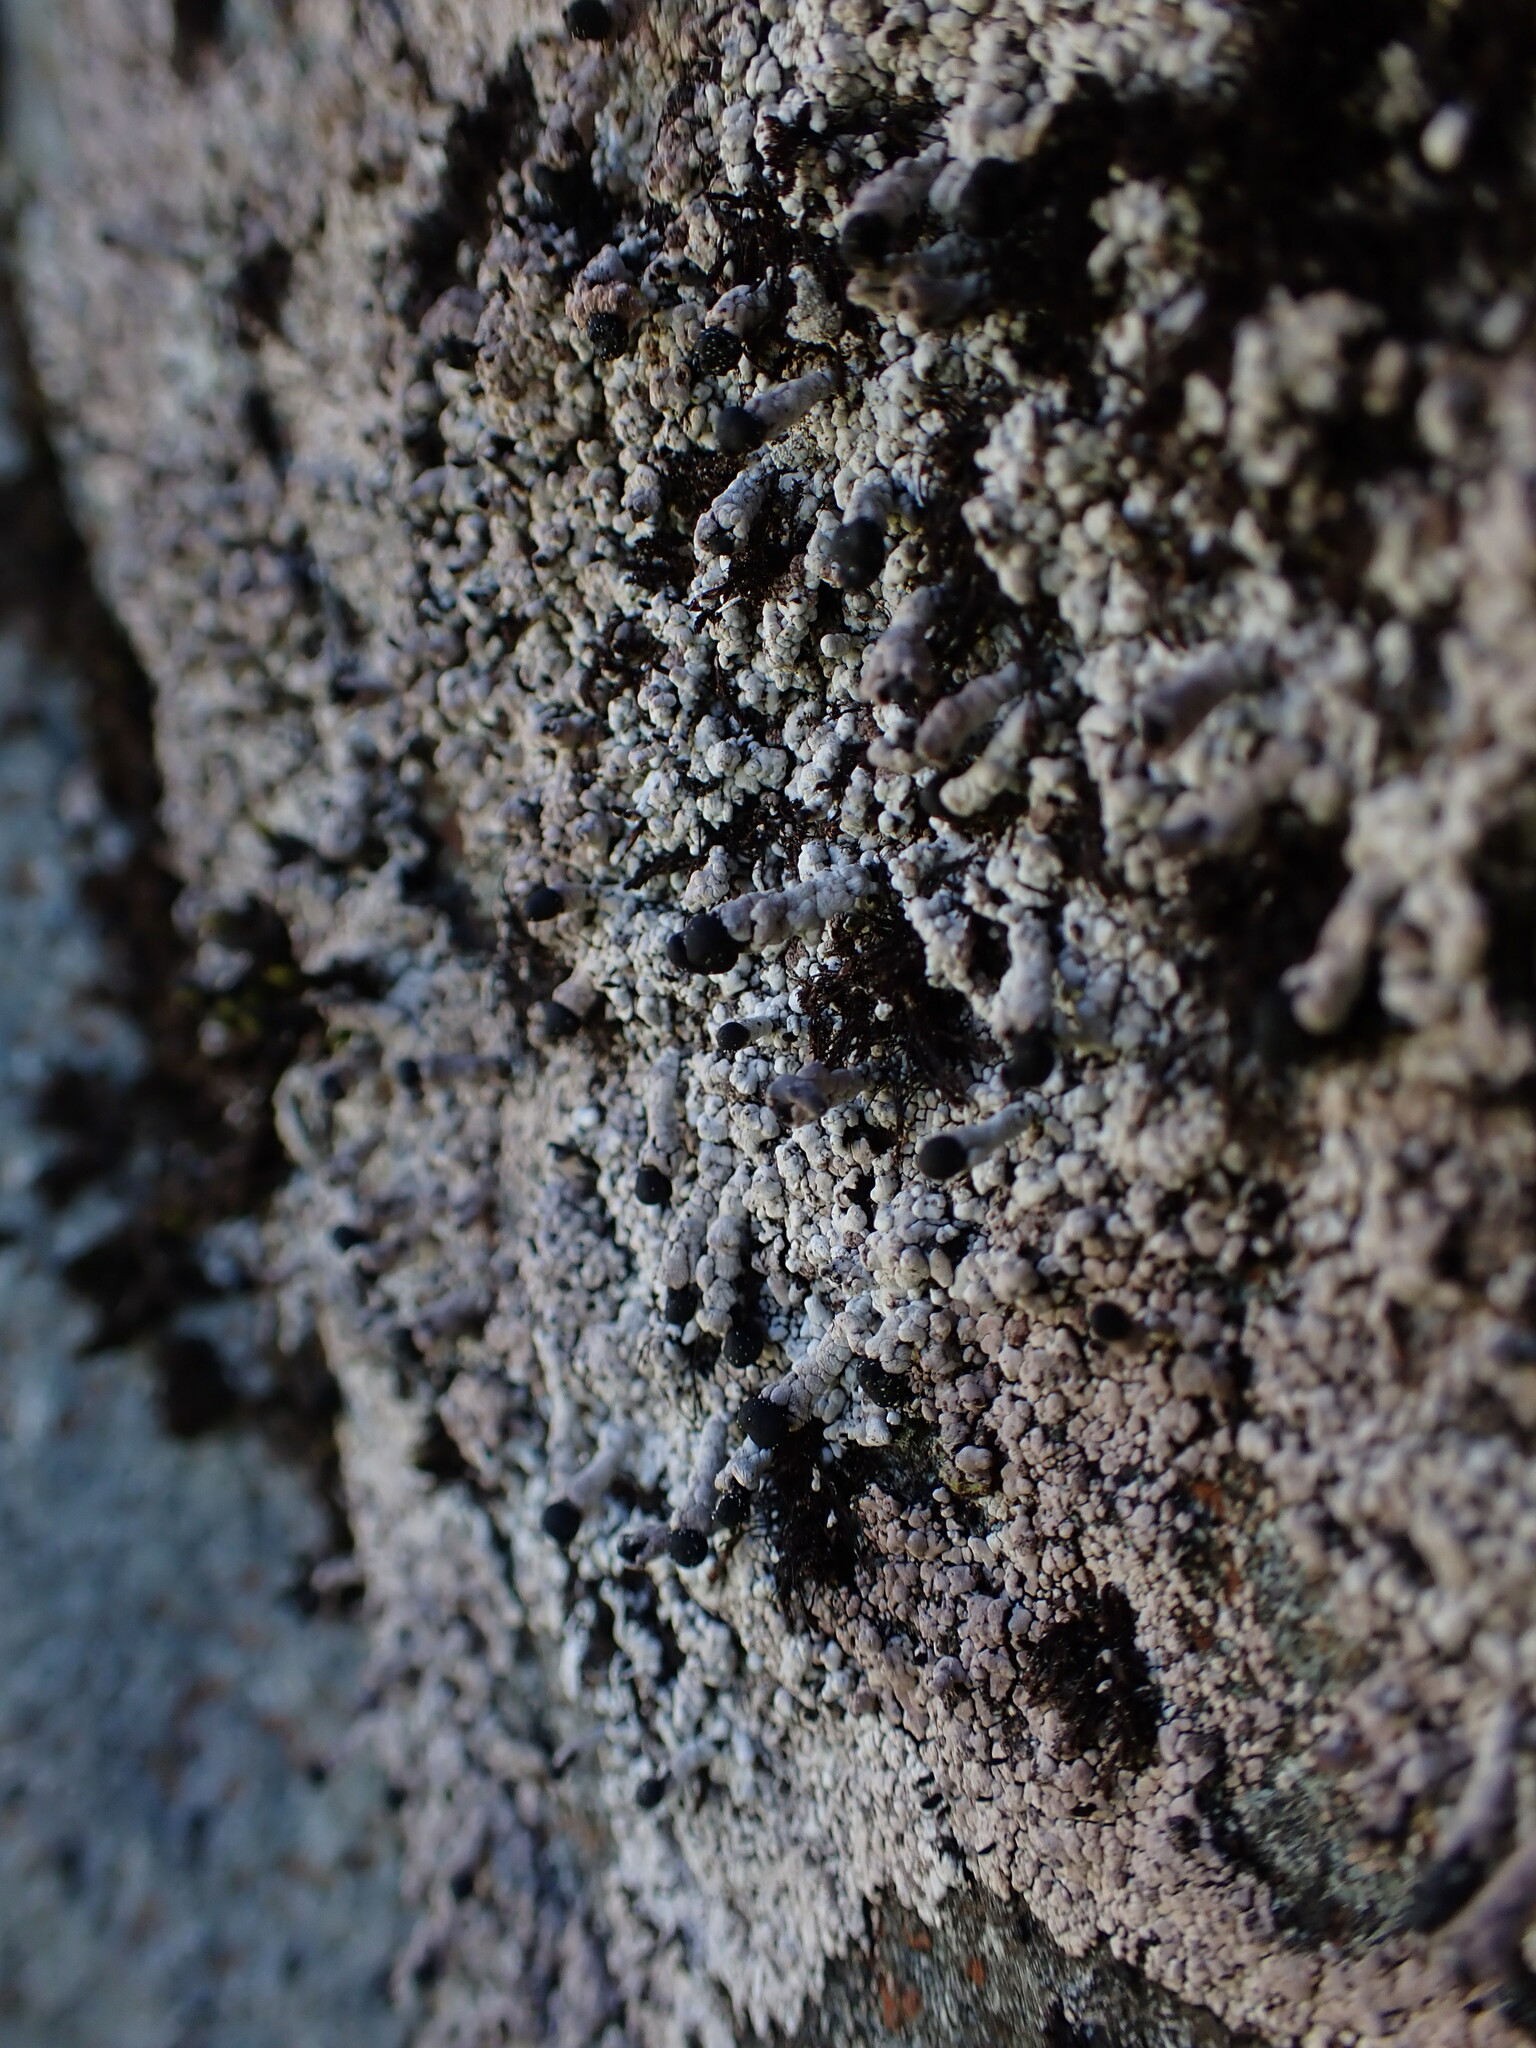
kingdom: Fungi
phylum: Ascomycota
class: Lecanoromycetes
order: Lecanorales
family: Cladoniaceae
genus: Pilophorus
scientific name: Pilophorus nigricaulis
